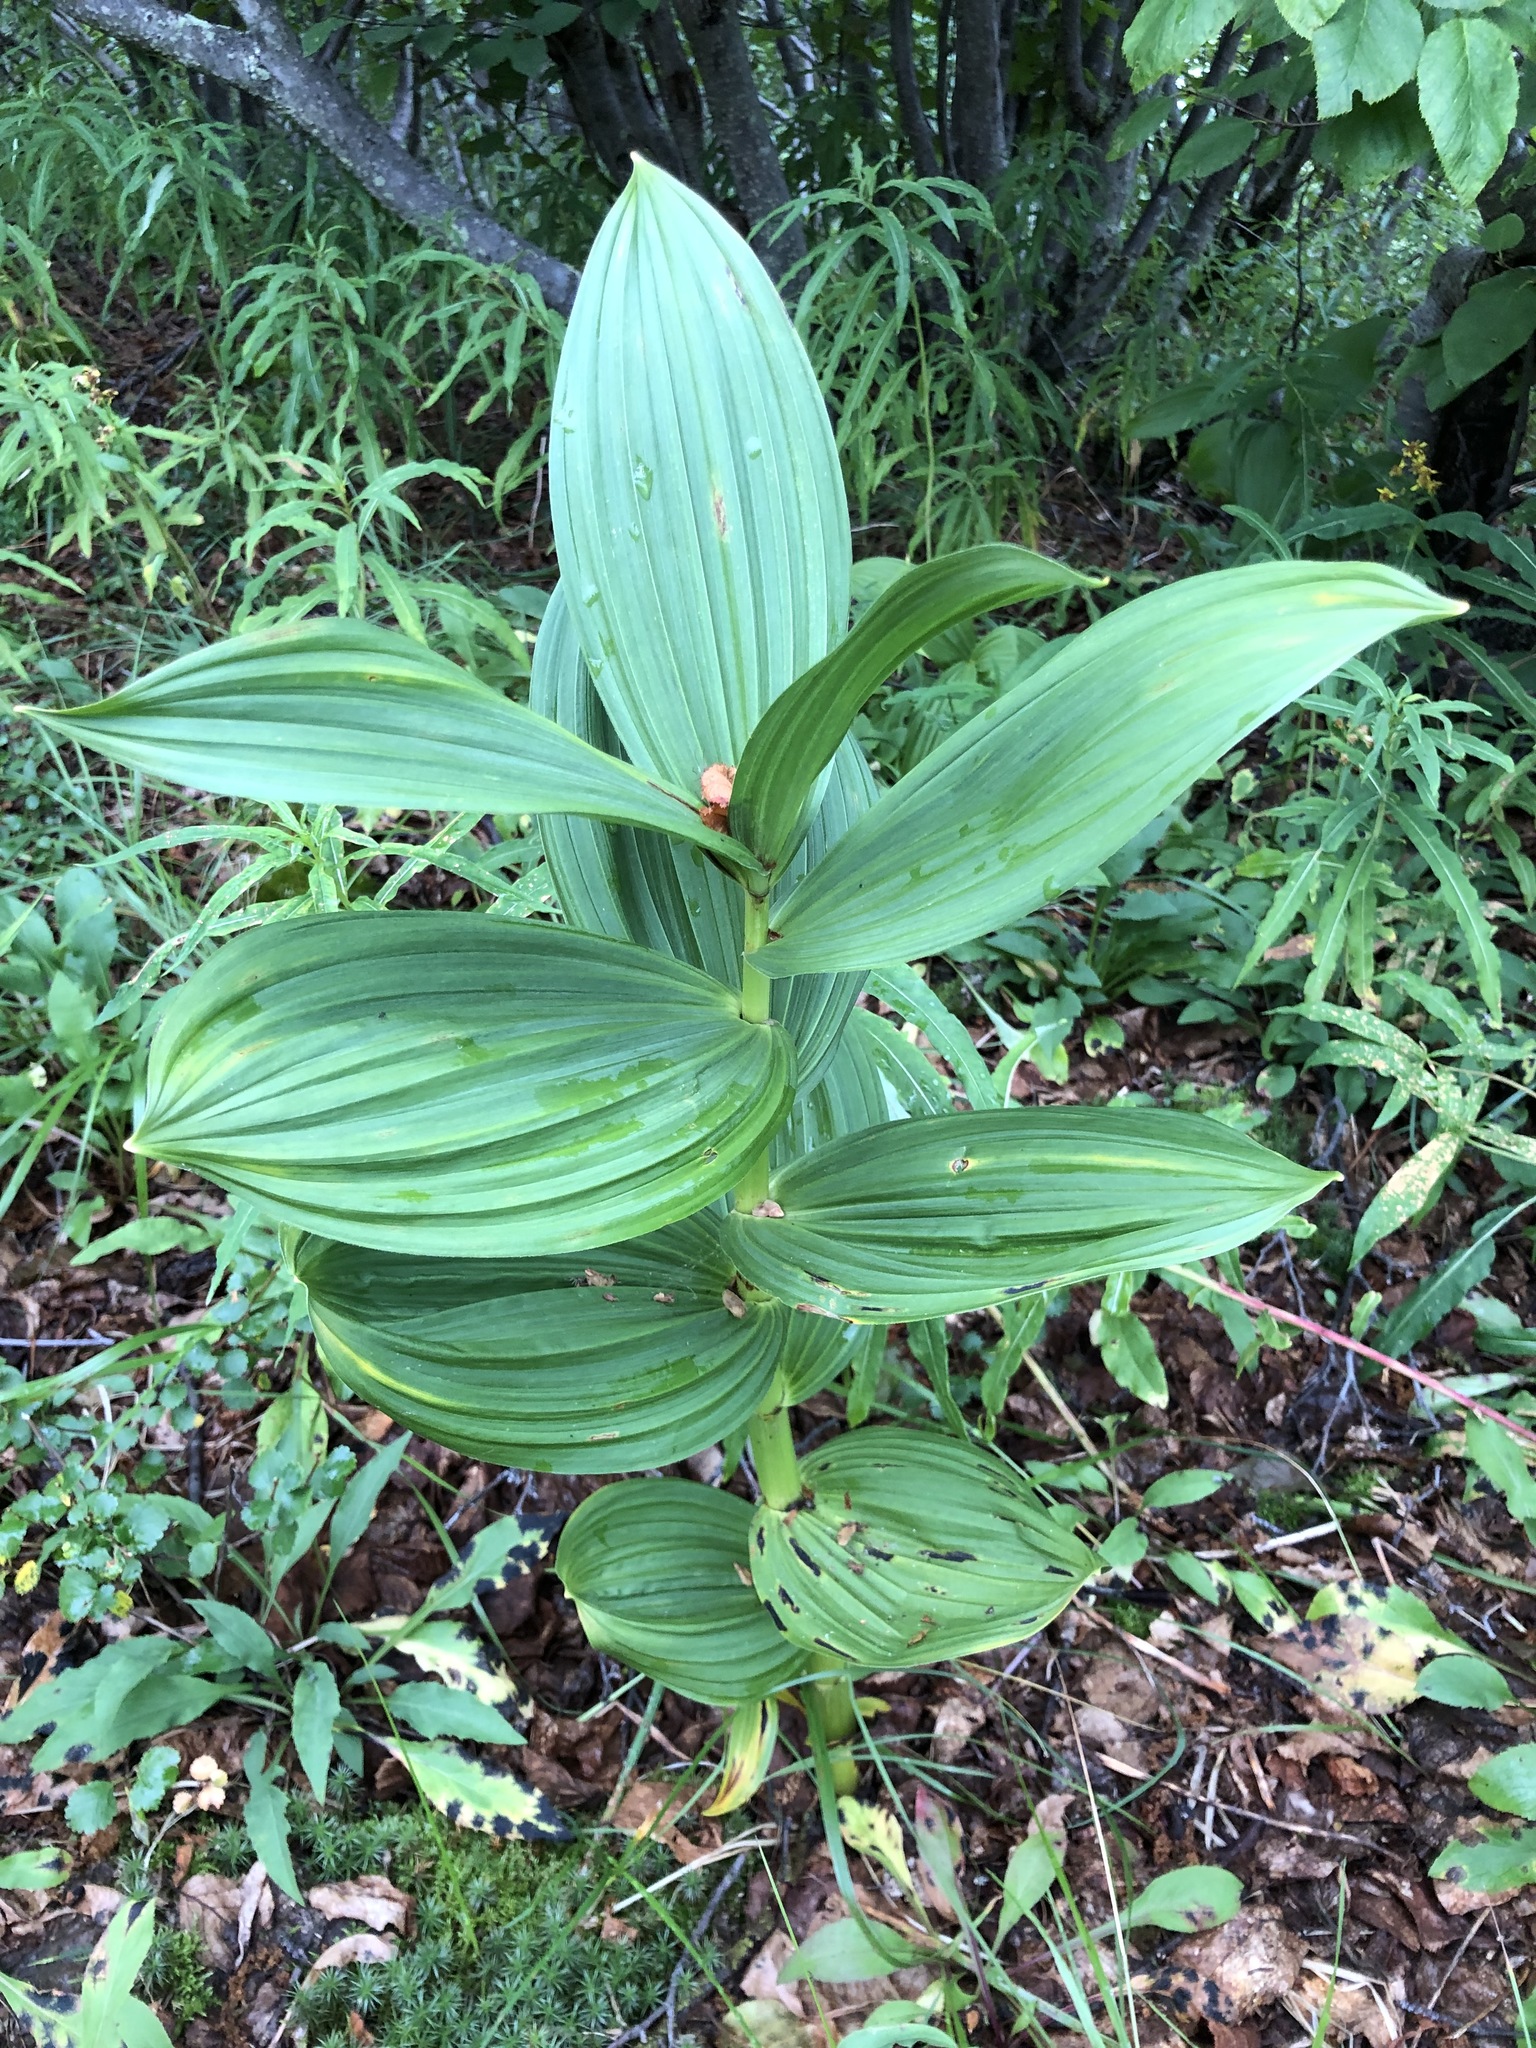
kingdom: Plantae
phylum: Tracheophyta
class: Liliopsida
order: Liliales
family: Melanthiaceae
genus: Veratrum
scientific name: Veratrum lobelianum
